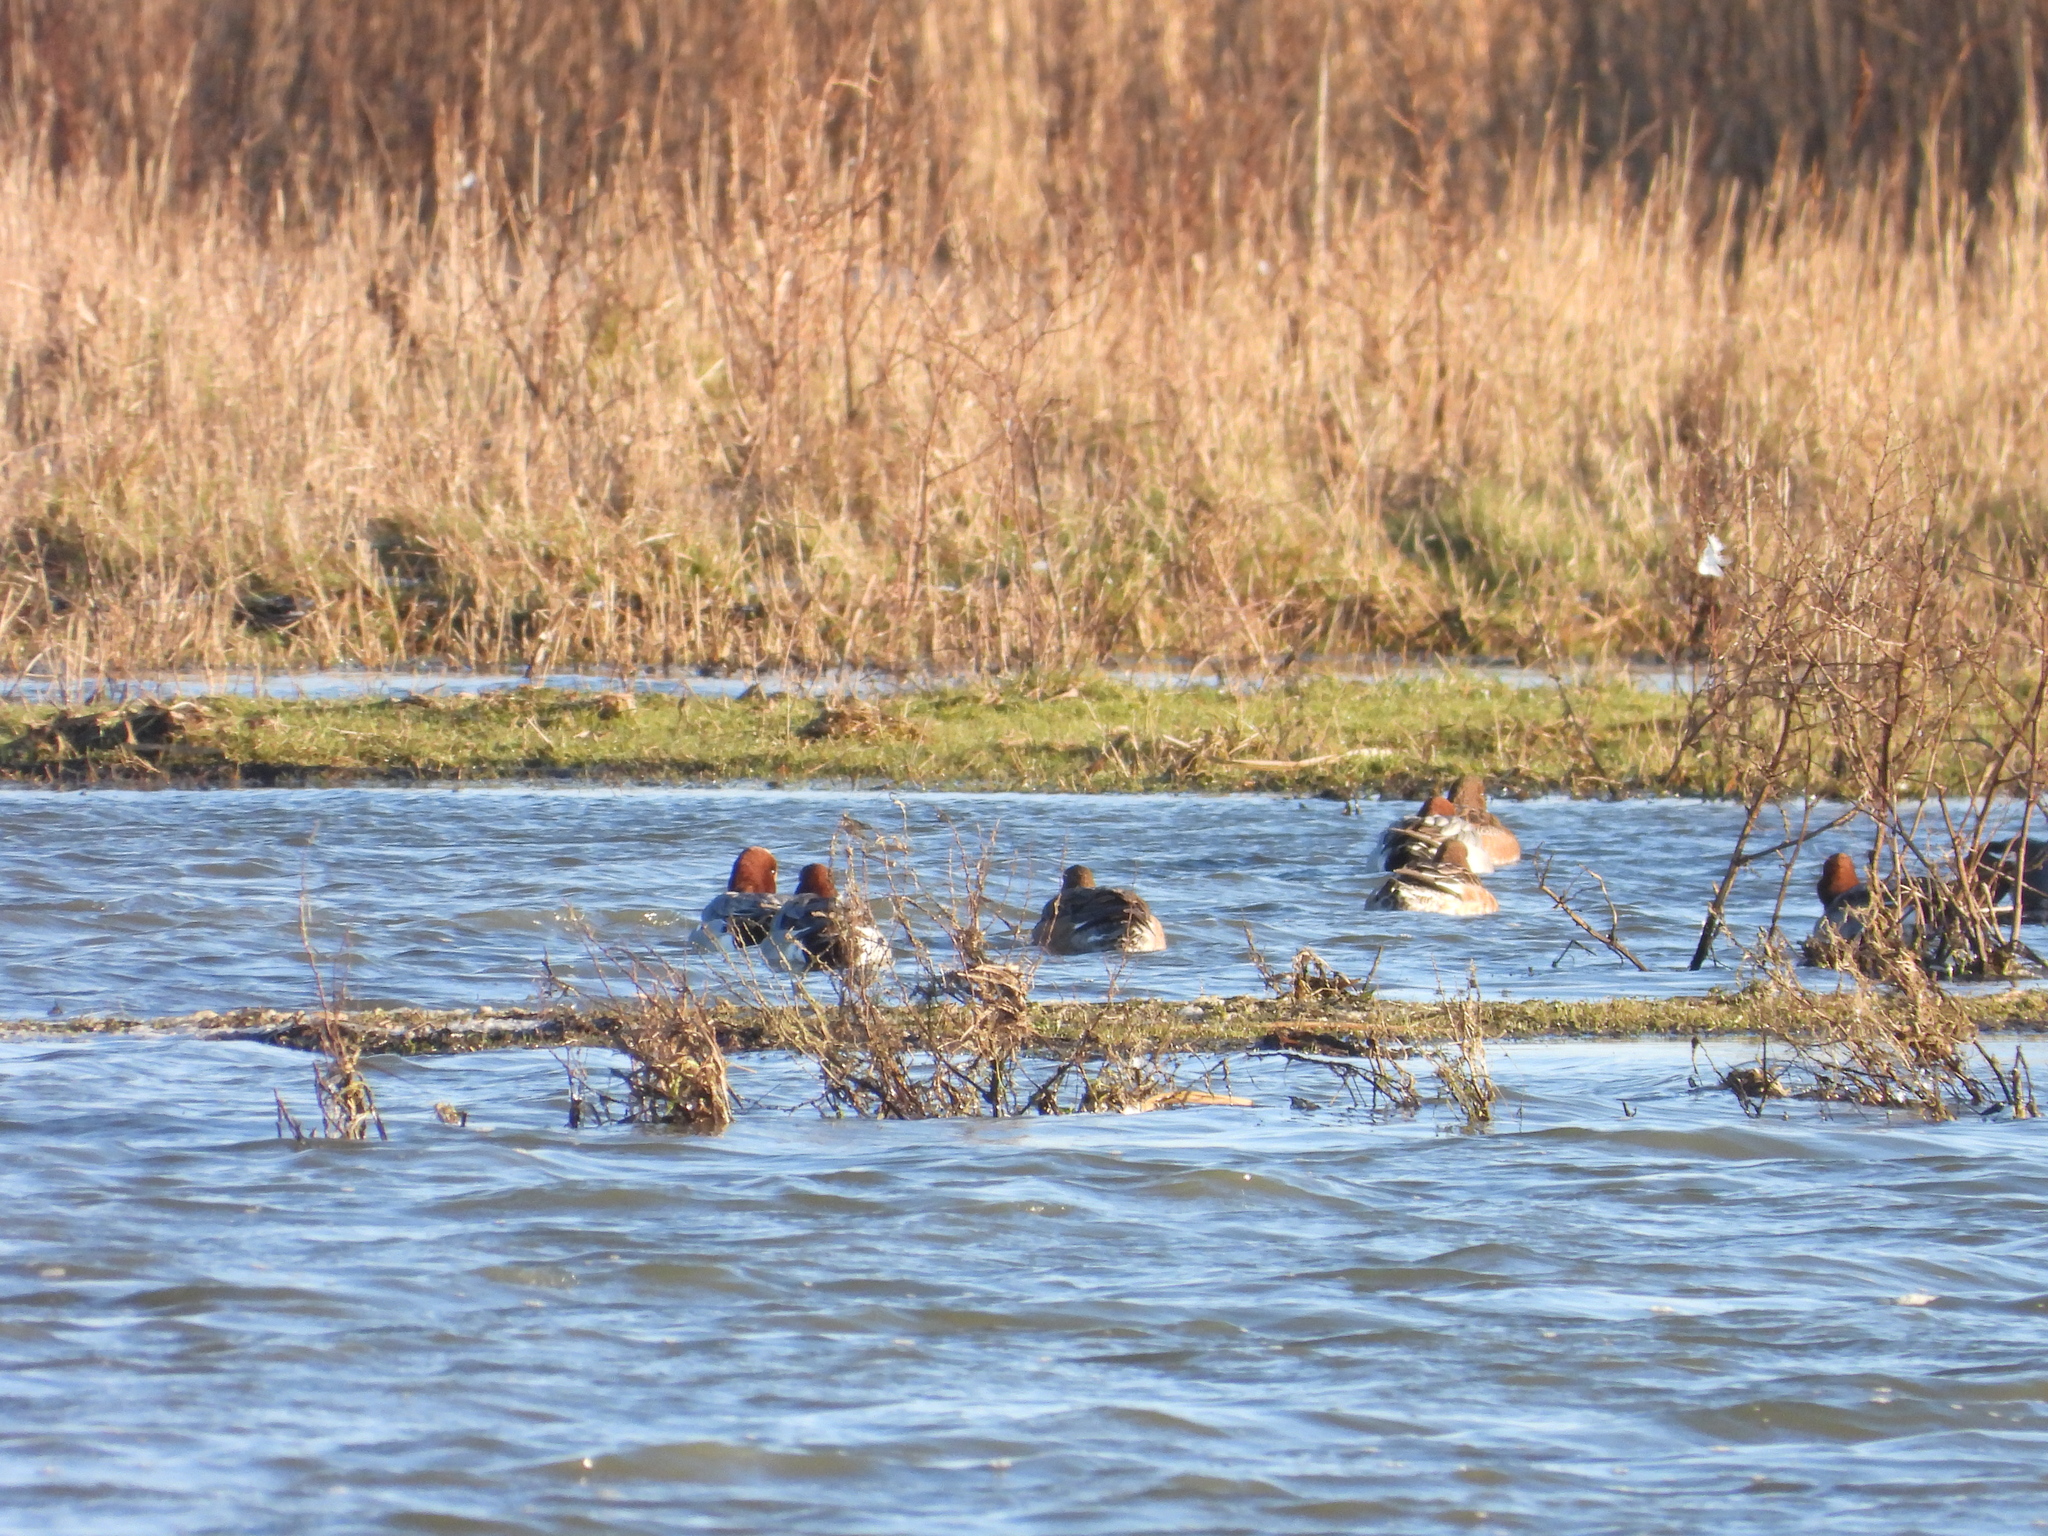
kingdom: Animalia
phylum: Chordata
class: Aves
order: Anseriformes
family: Anatidae
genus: Mareca
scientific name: Mareca penelope
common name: Eurasian wigeon
